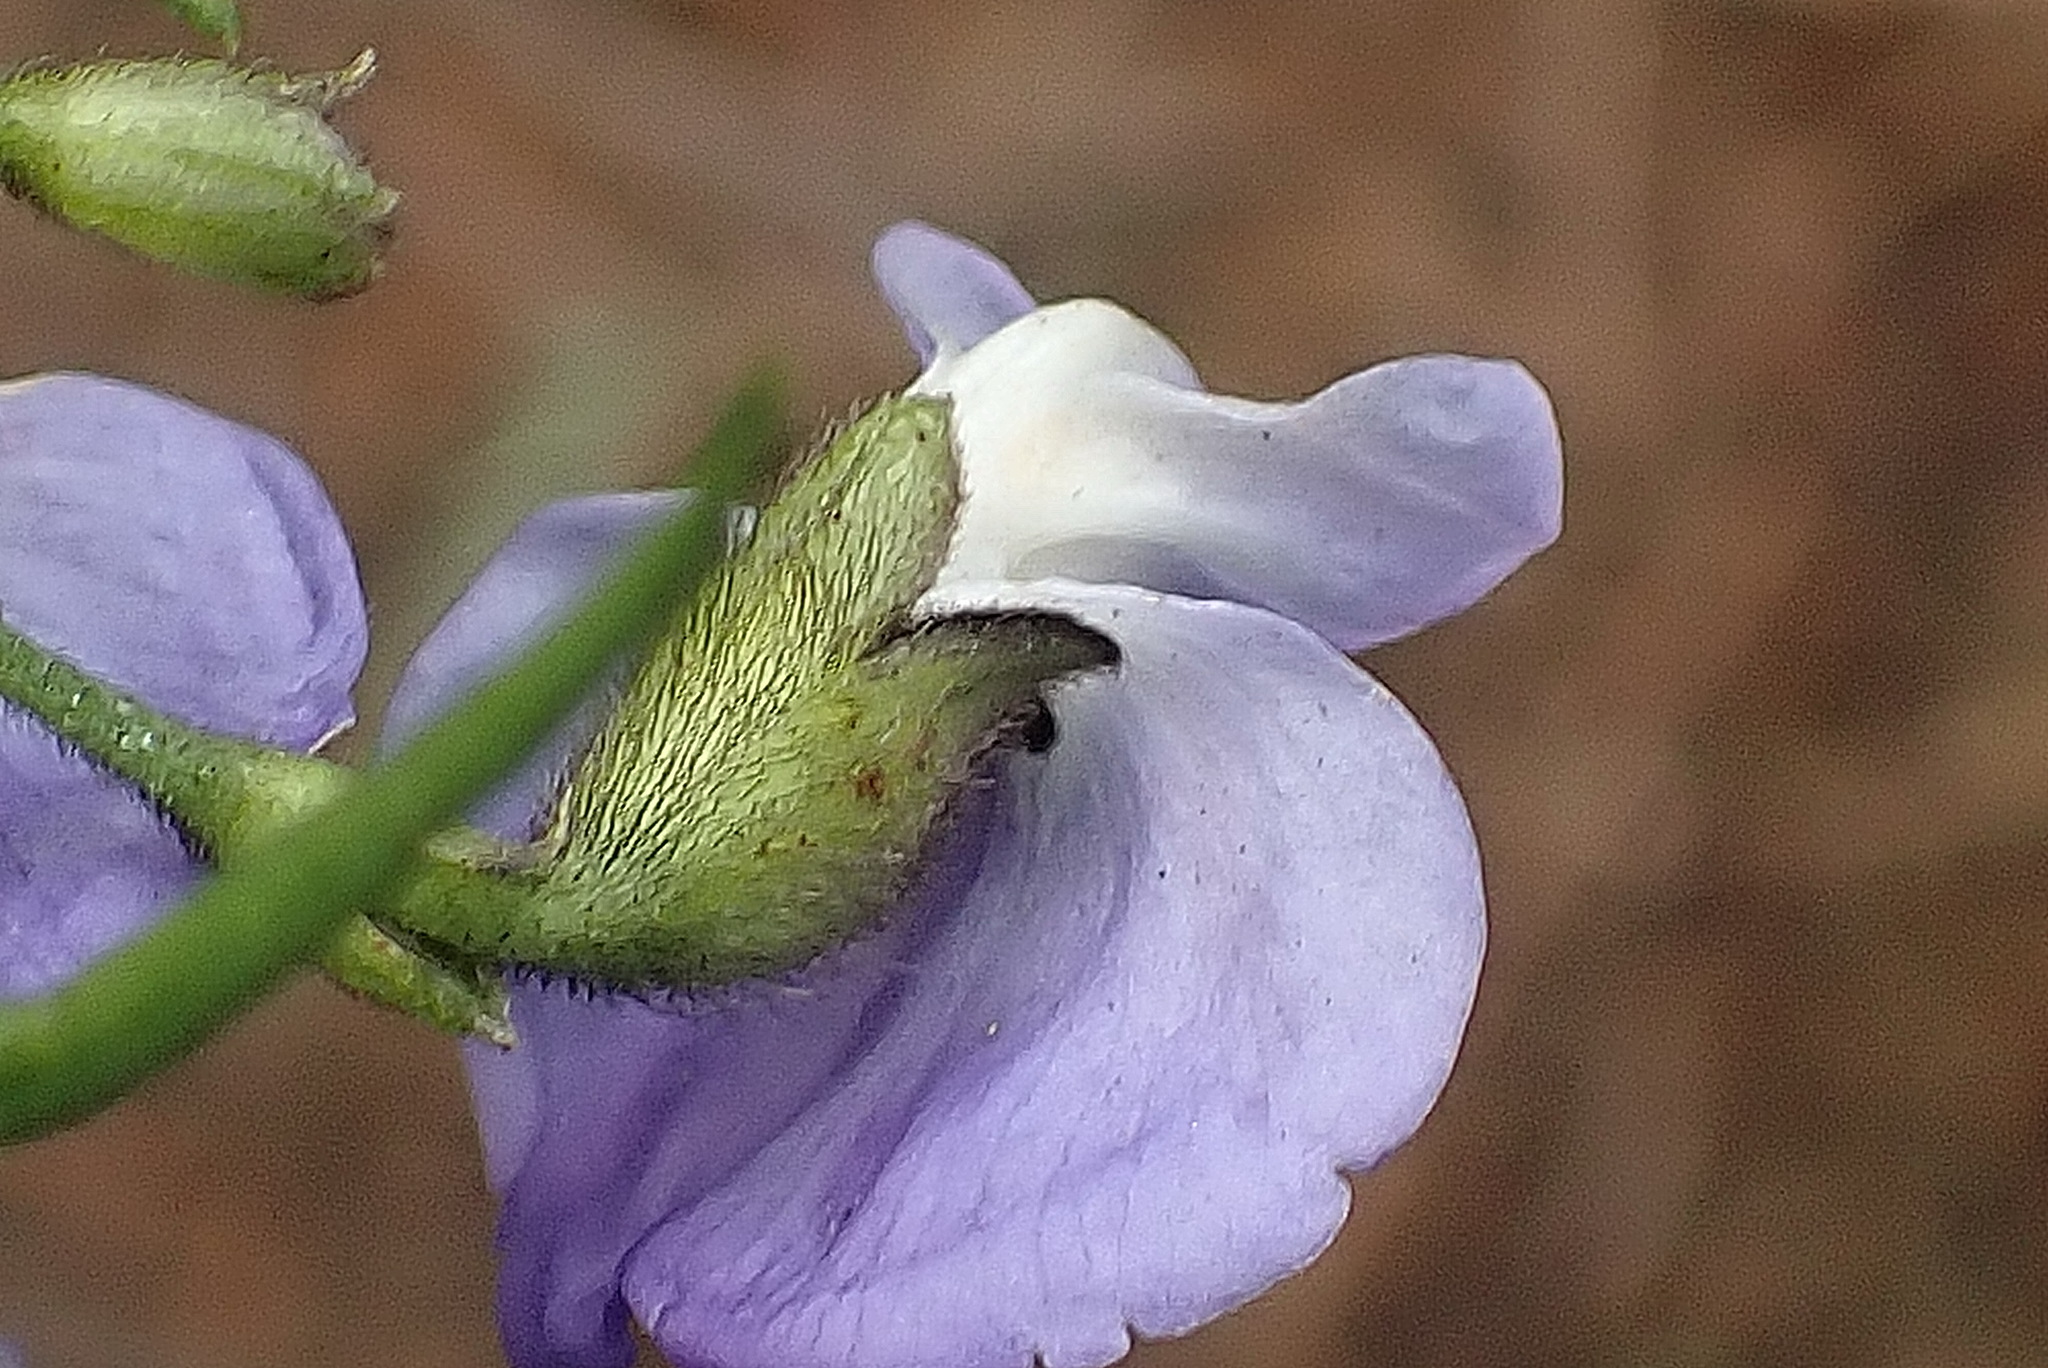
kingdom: Plantae
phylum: Tracheophyta
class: Magnoliopsida
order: Fabales
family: Fabaceae
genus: Psoralea
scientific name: Psoralea arborea
